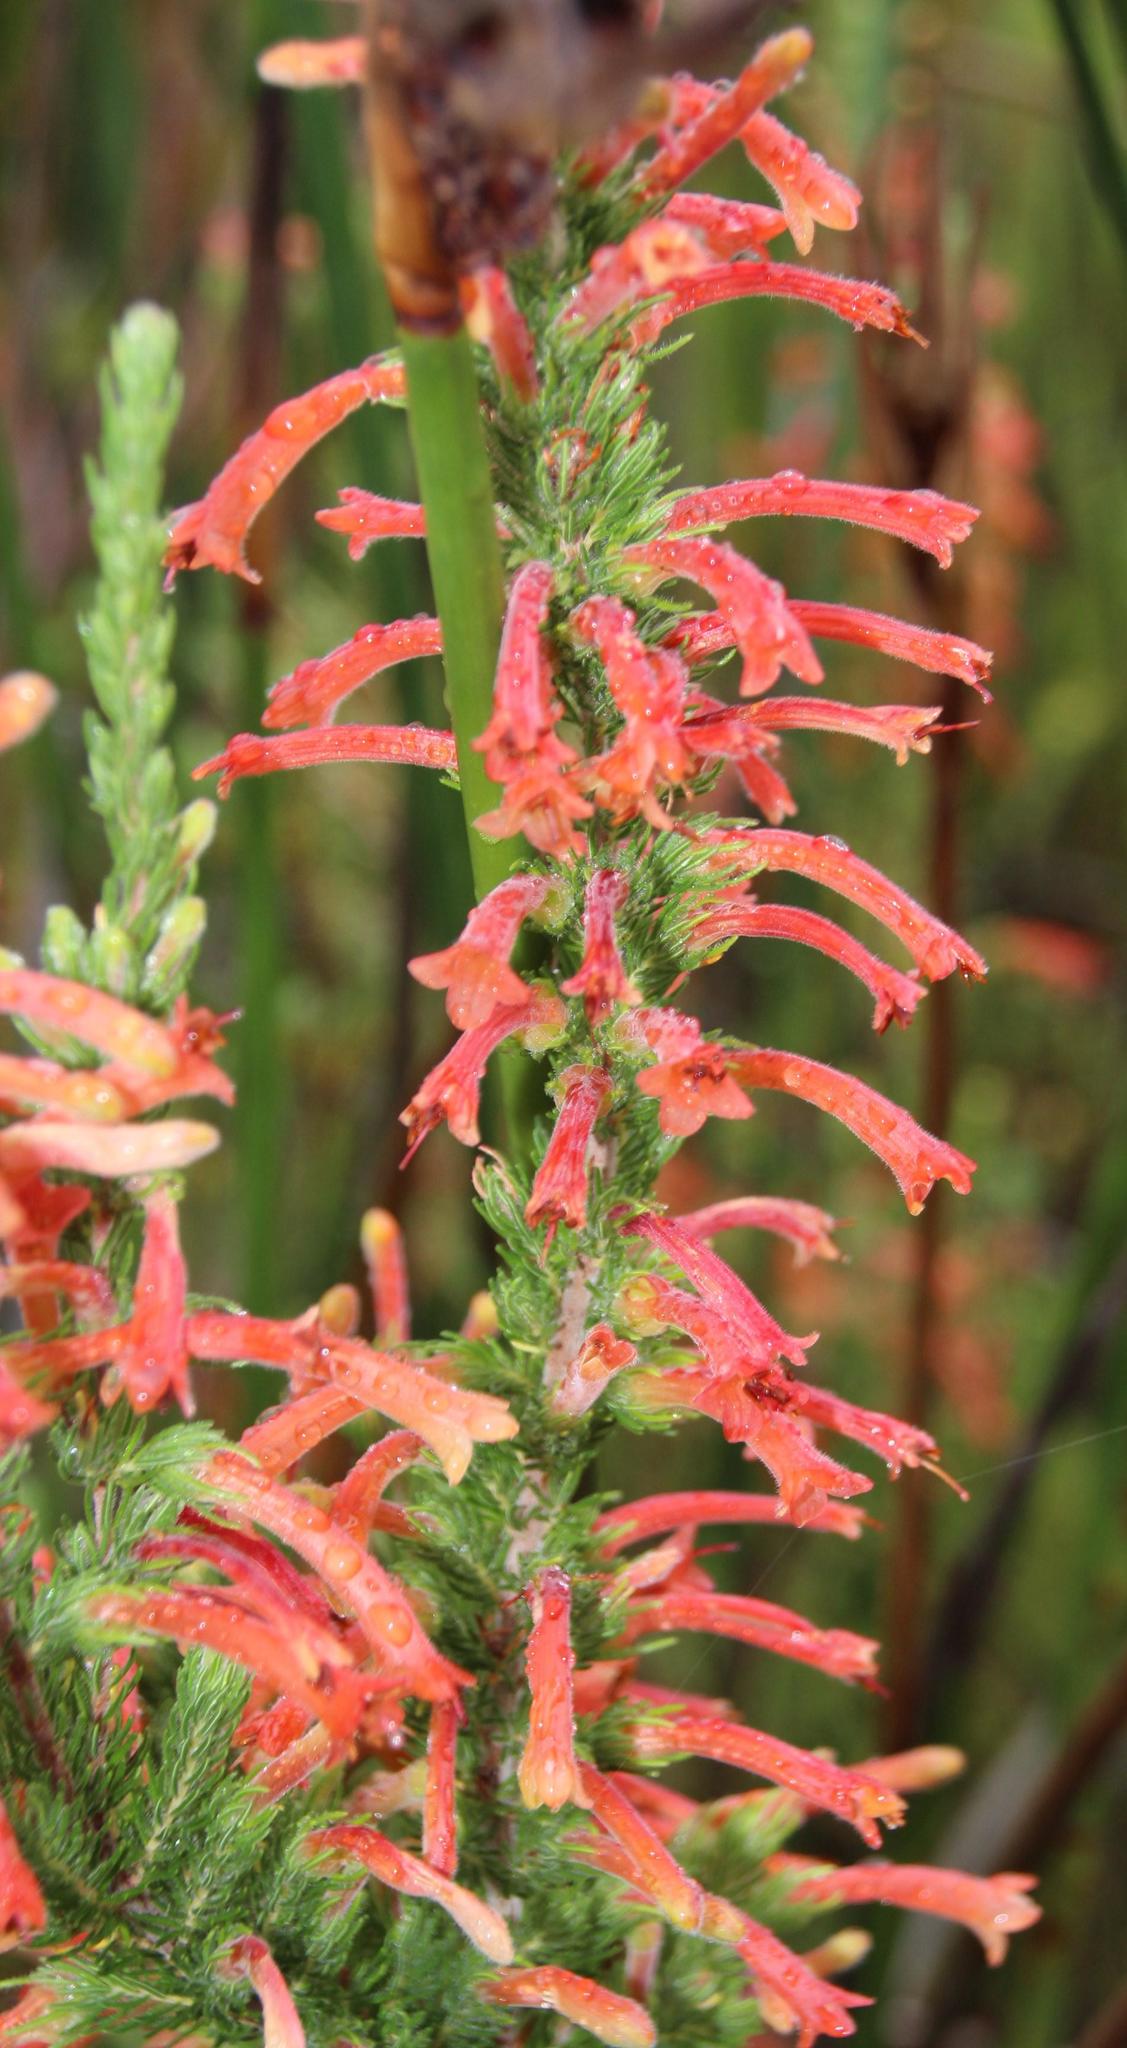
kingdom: Plantae
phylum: Tracheophyta
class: Magnoliopsida
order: Ericales
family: Ericaceae
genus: Erica
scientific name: Erica curviflora
